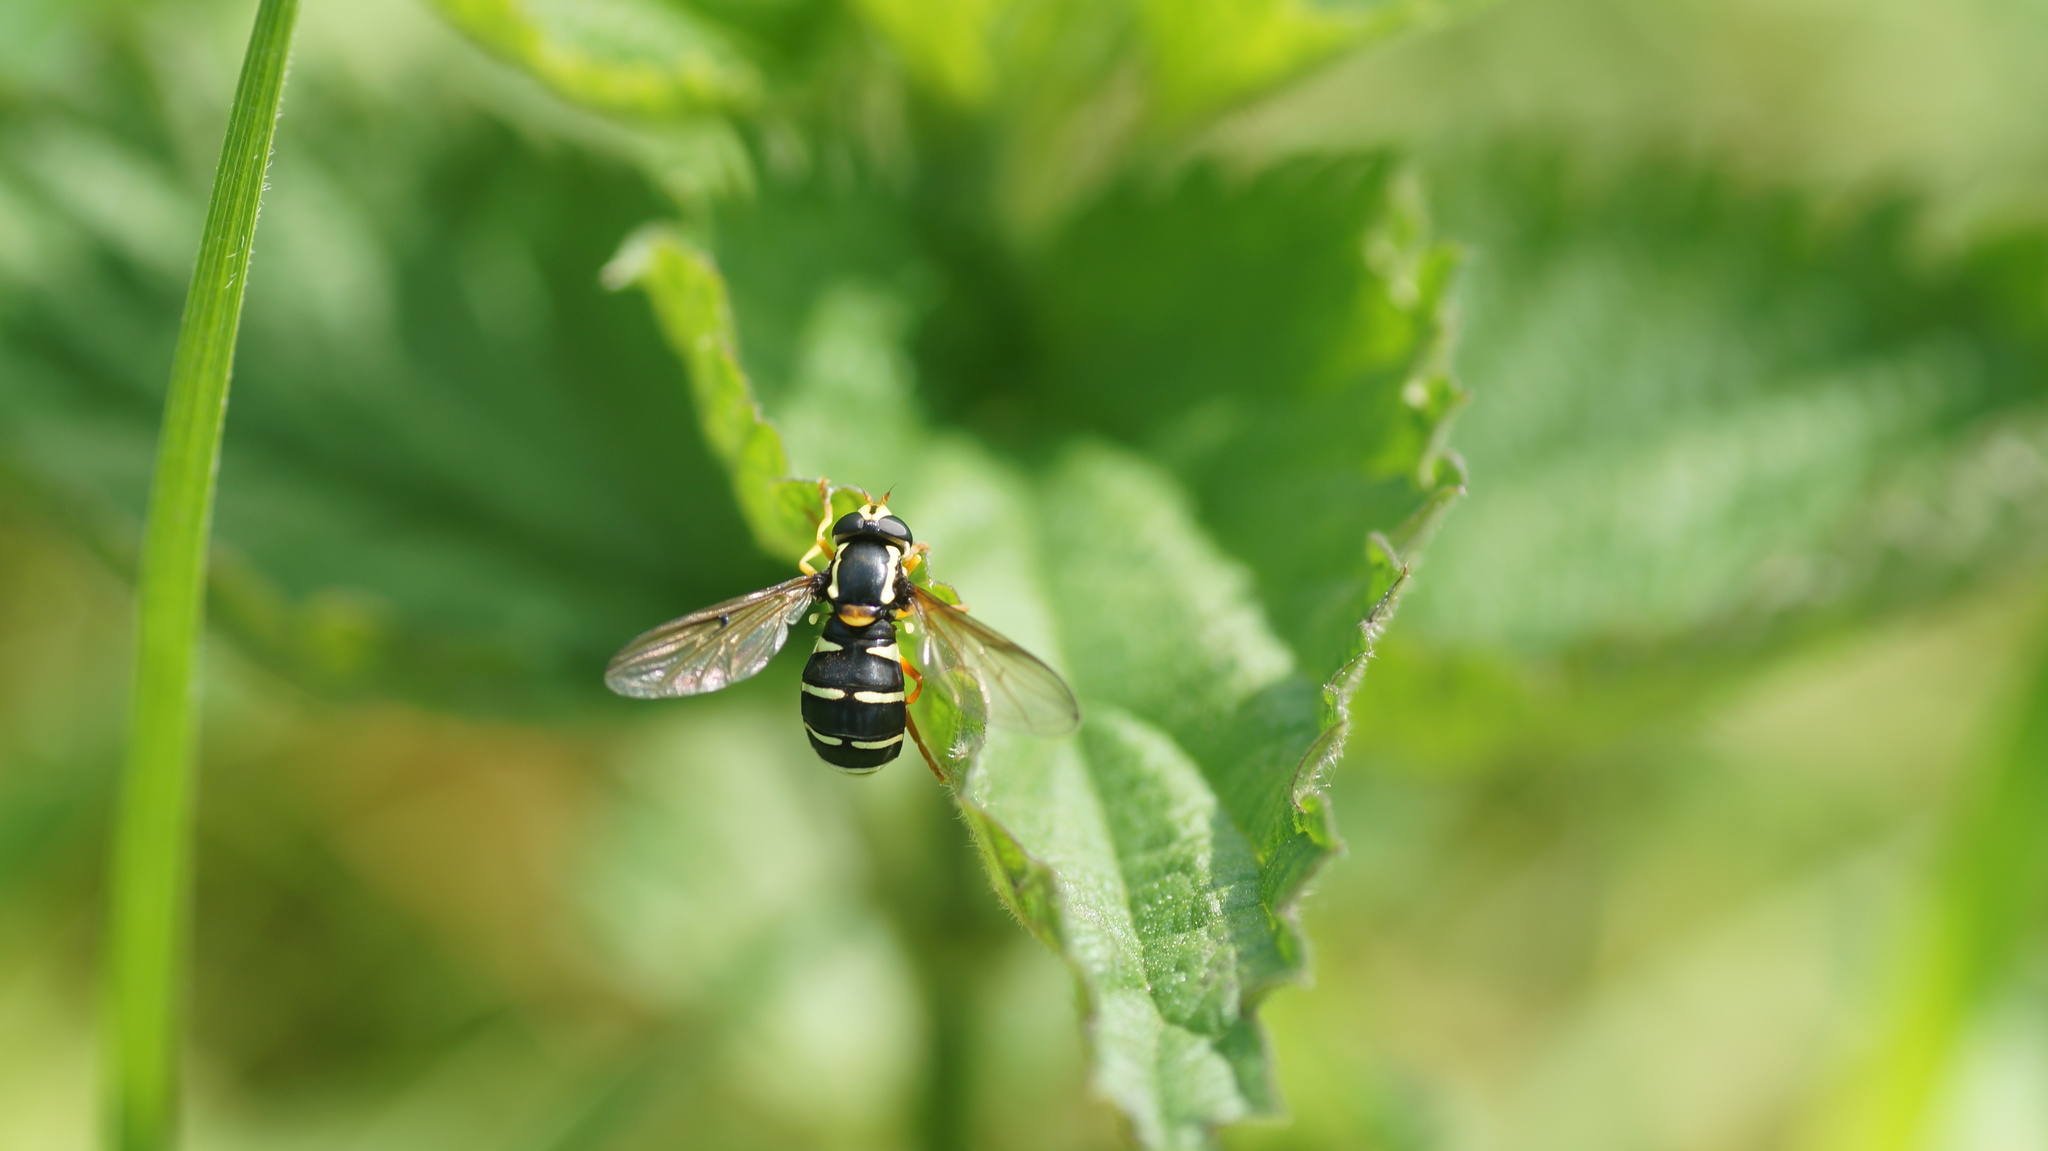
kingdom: Animalia
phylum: Arthropoda
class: Insecta
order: Diptera
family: Syrphidae
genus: Philhelius
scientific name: Philhelius citrofasciata
